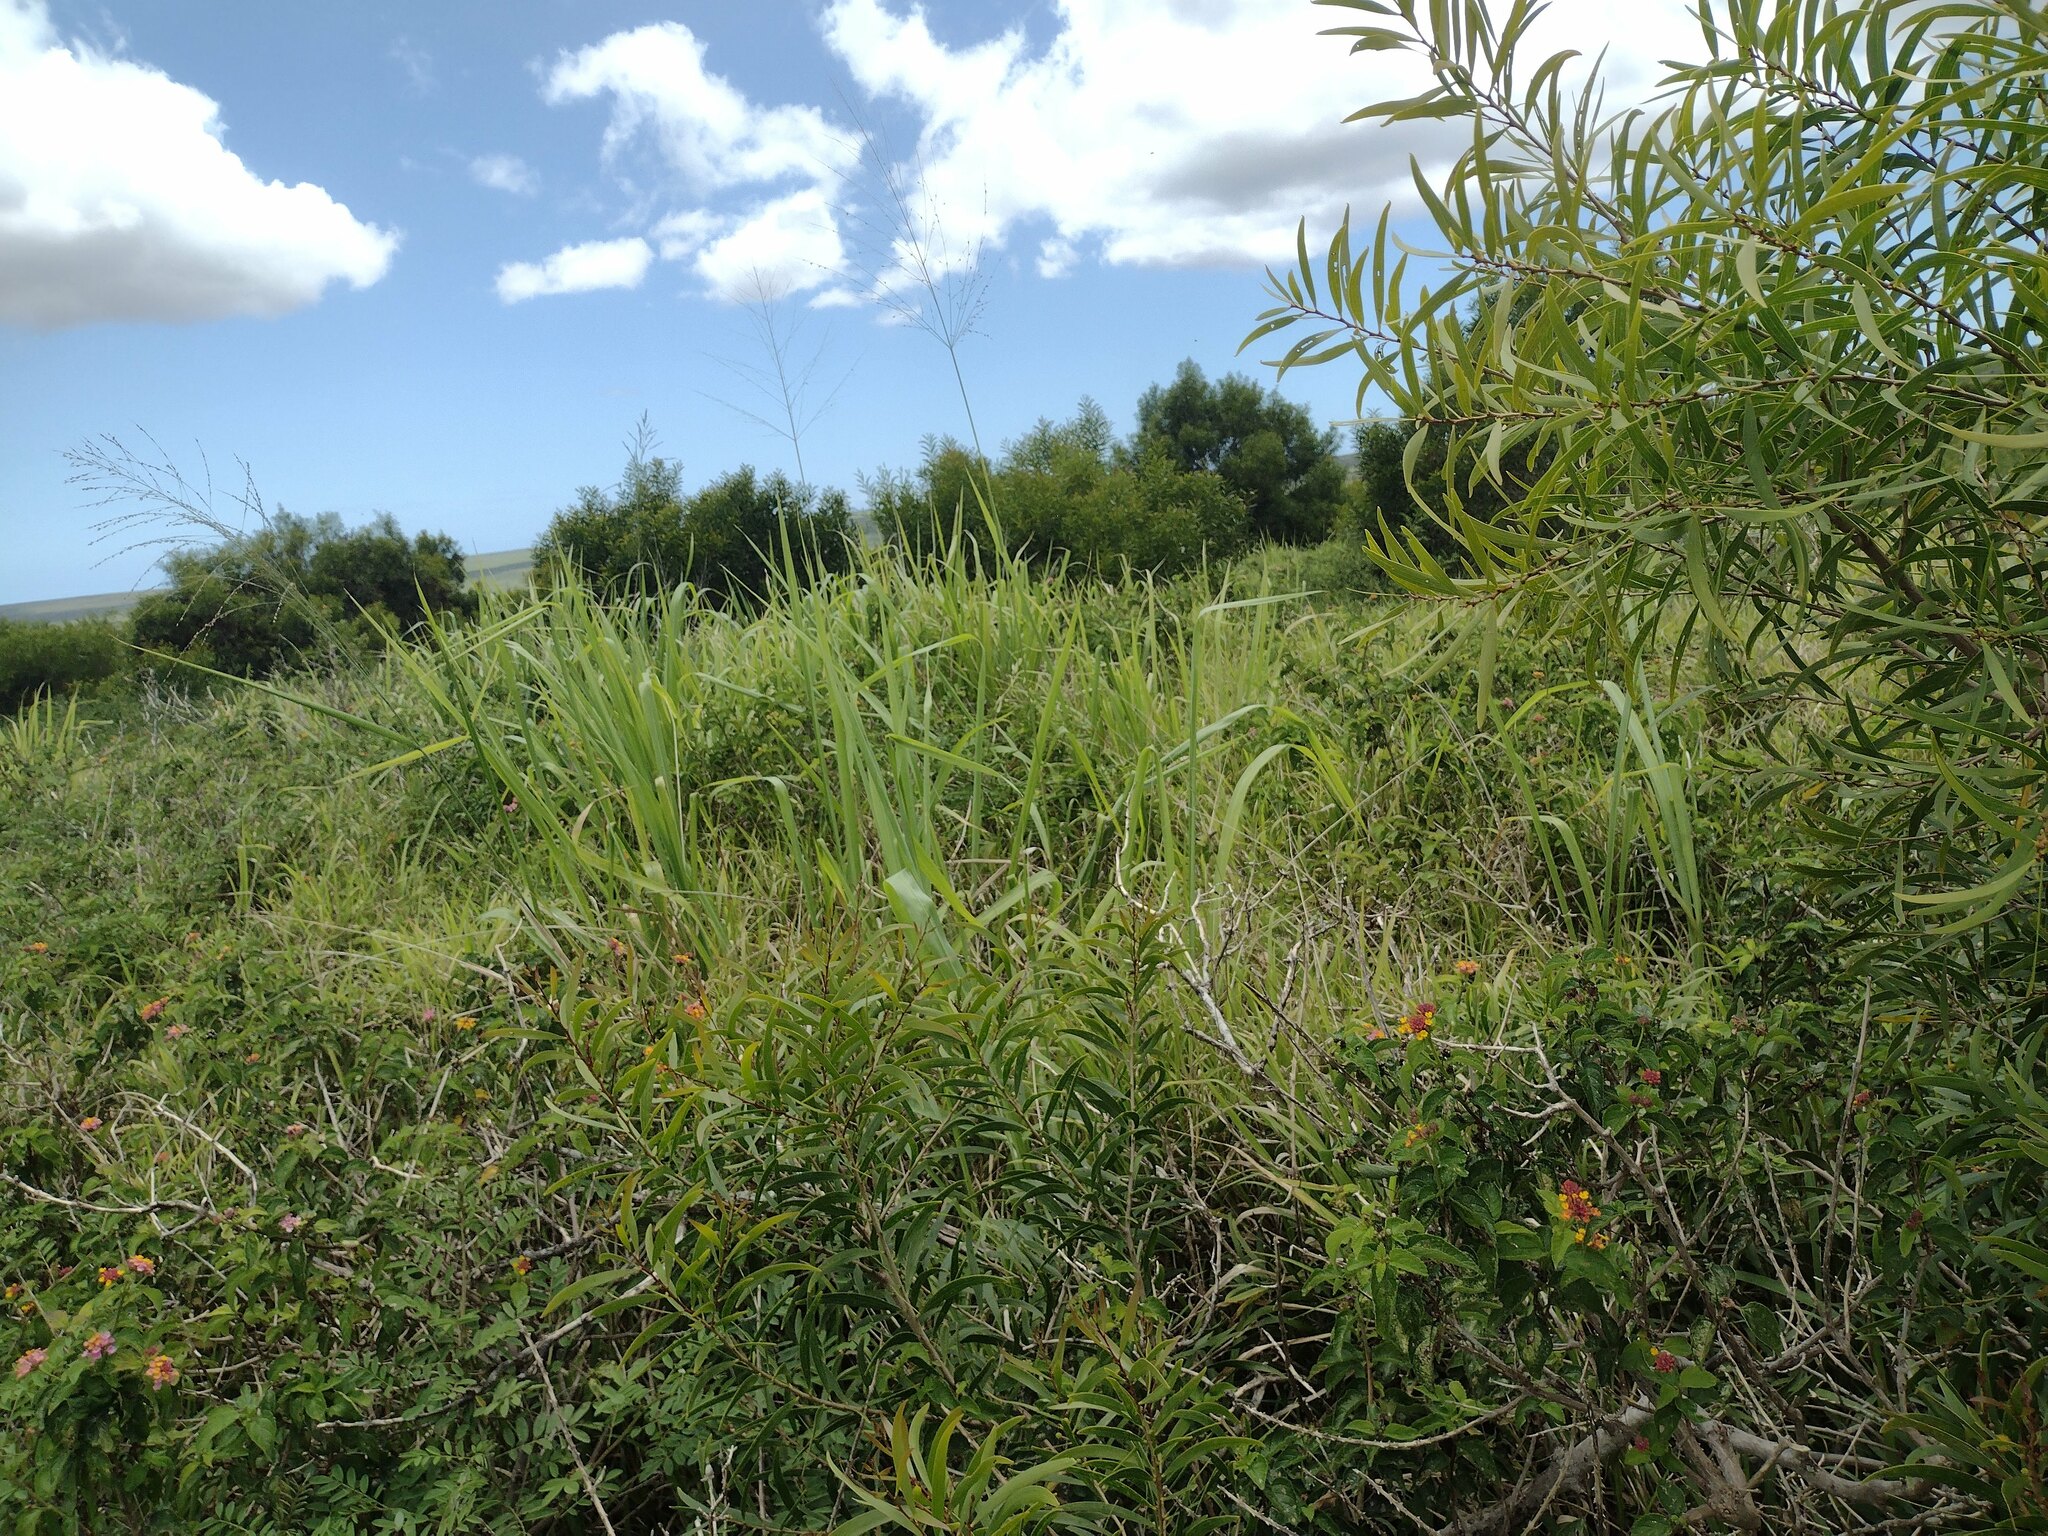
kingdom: Plantae
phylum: Tracheophyta
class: Liliopsida
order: Poales
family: Poaceae
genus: Megathyrsus
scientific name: Megathyrsus maximus
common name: Guineagrass
